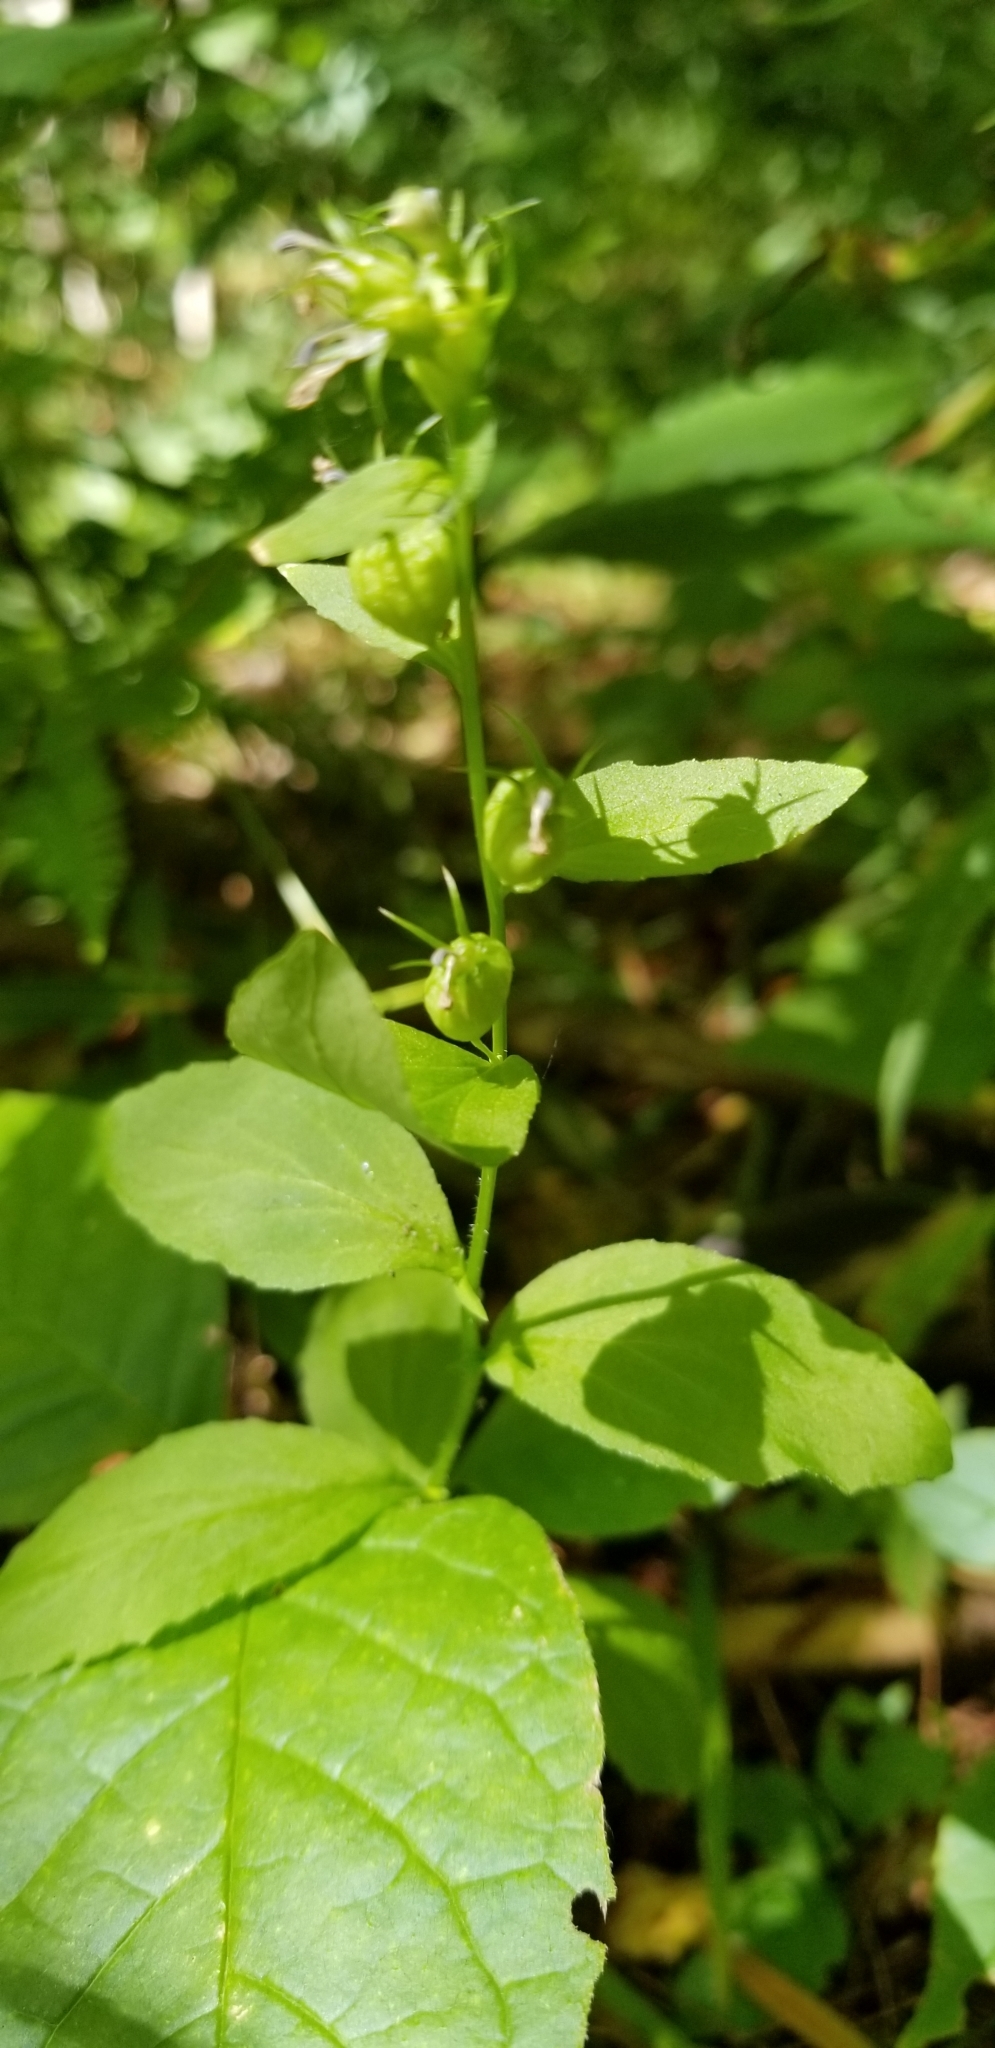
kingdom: Plantae
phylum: Tracheophyta
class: Magnoliopsida
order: Asterales
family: Campanulaceae
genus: Lobelia
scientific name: Lobelia inflata
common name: Indian tobacco
